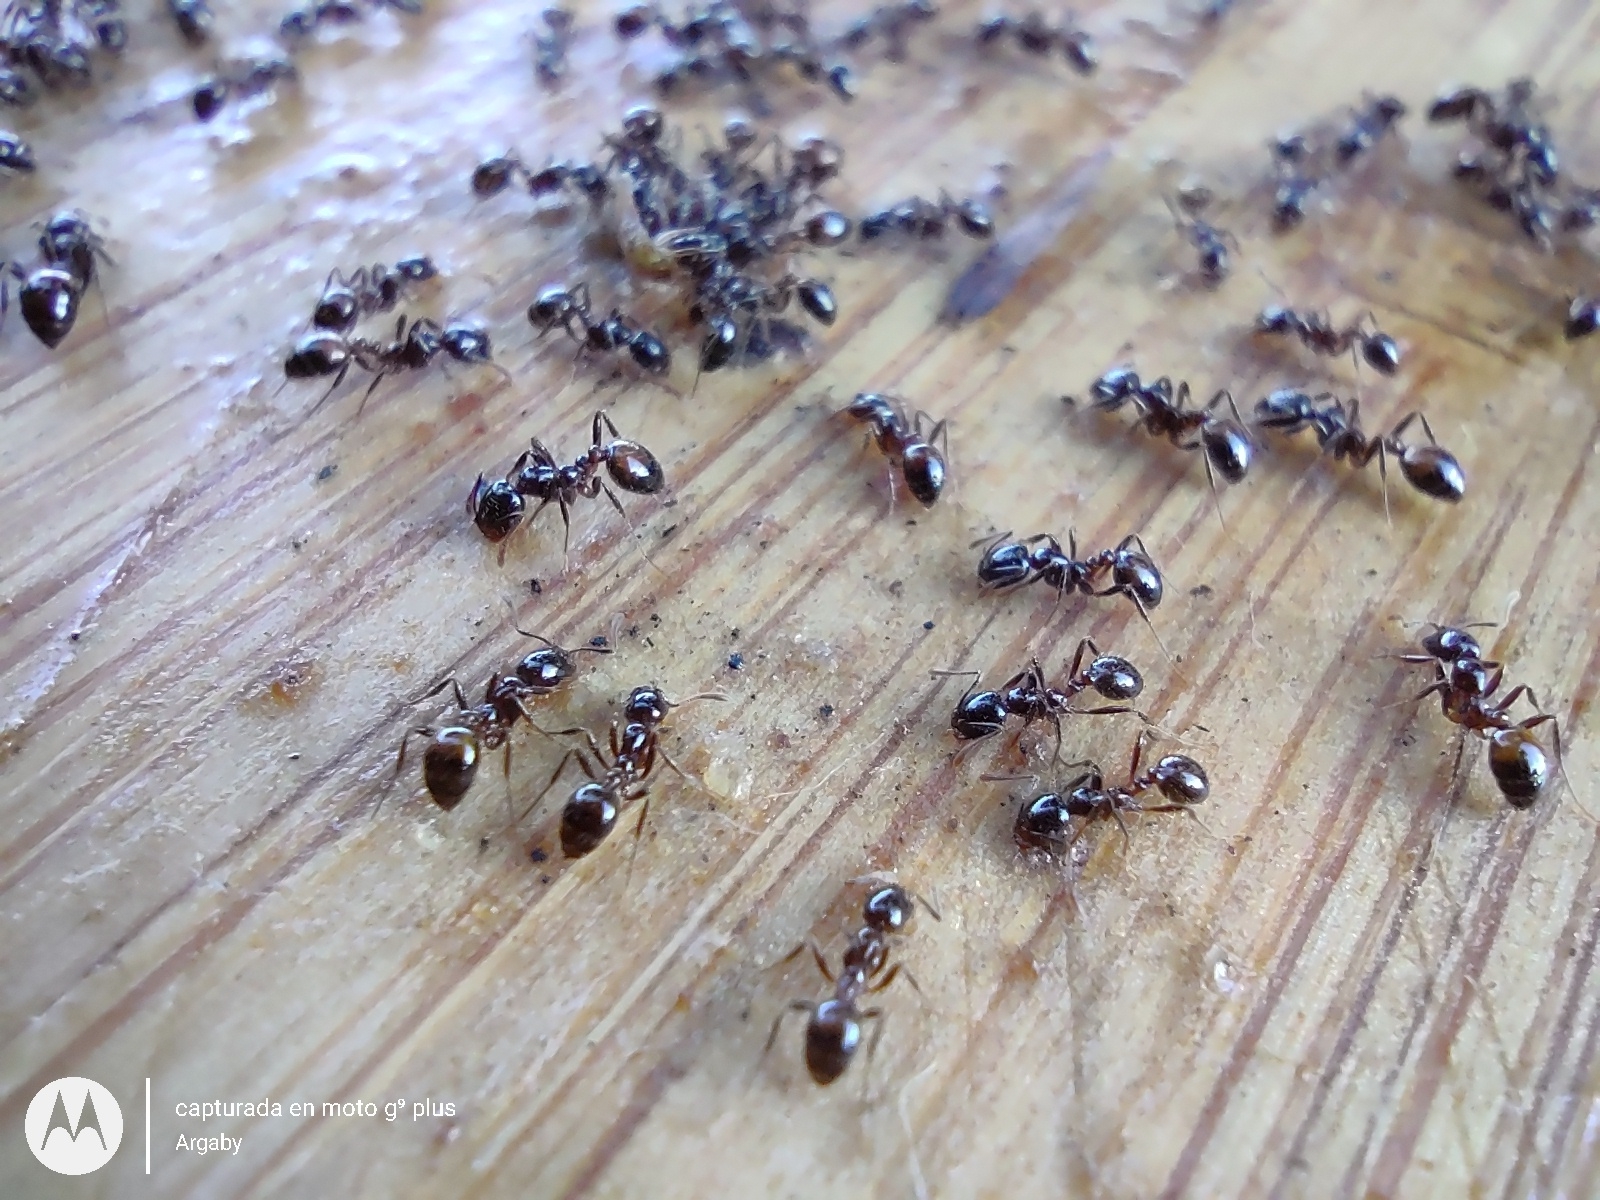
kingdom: Animalia
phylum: Arthropoda
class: Insecta
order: Hymenoptera
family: Formicidae
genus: Solenopsis
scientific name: Solenopsis richteri
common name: Black imported fire ant
